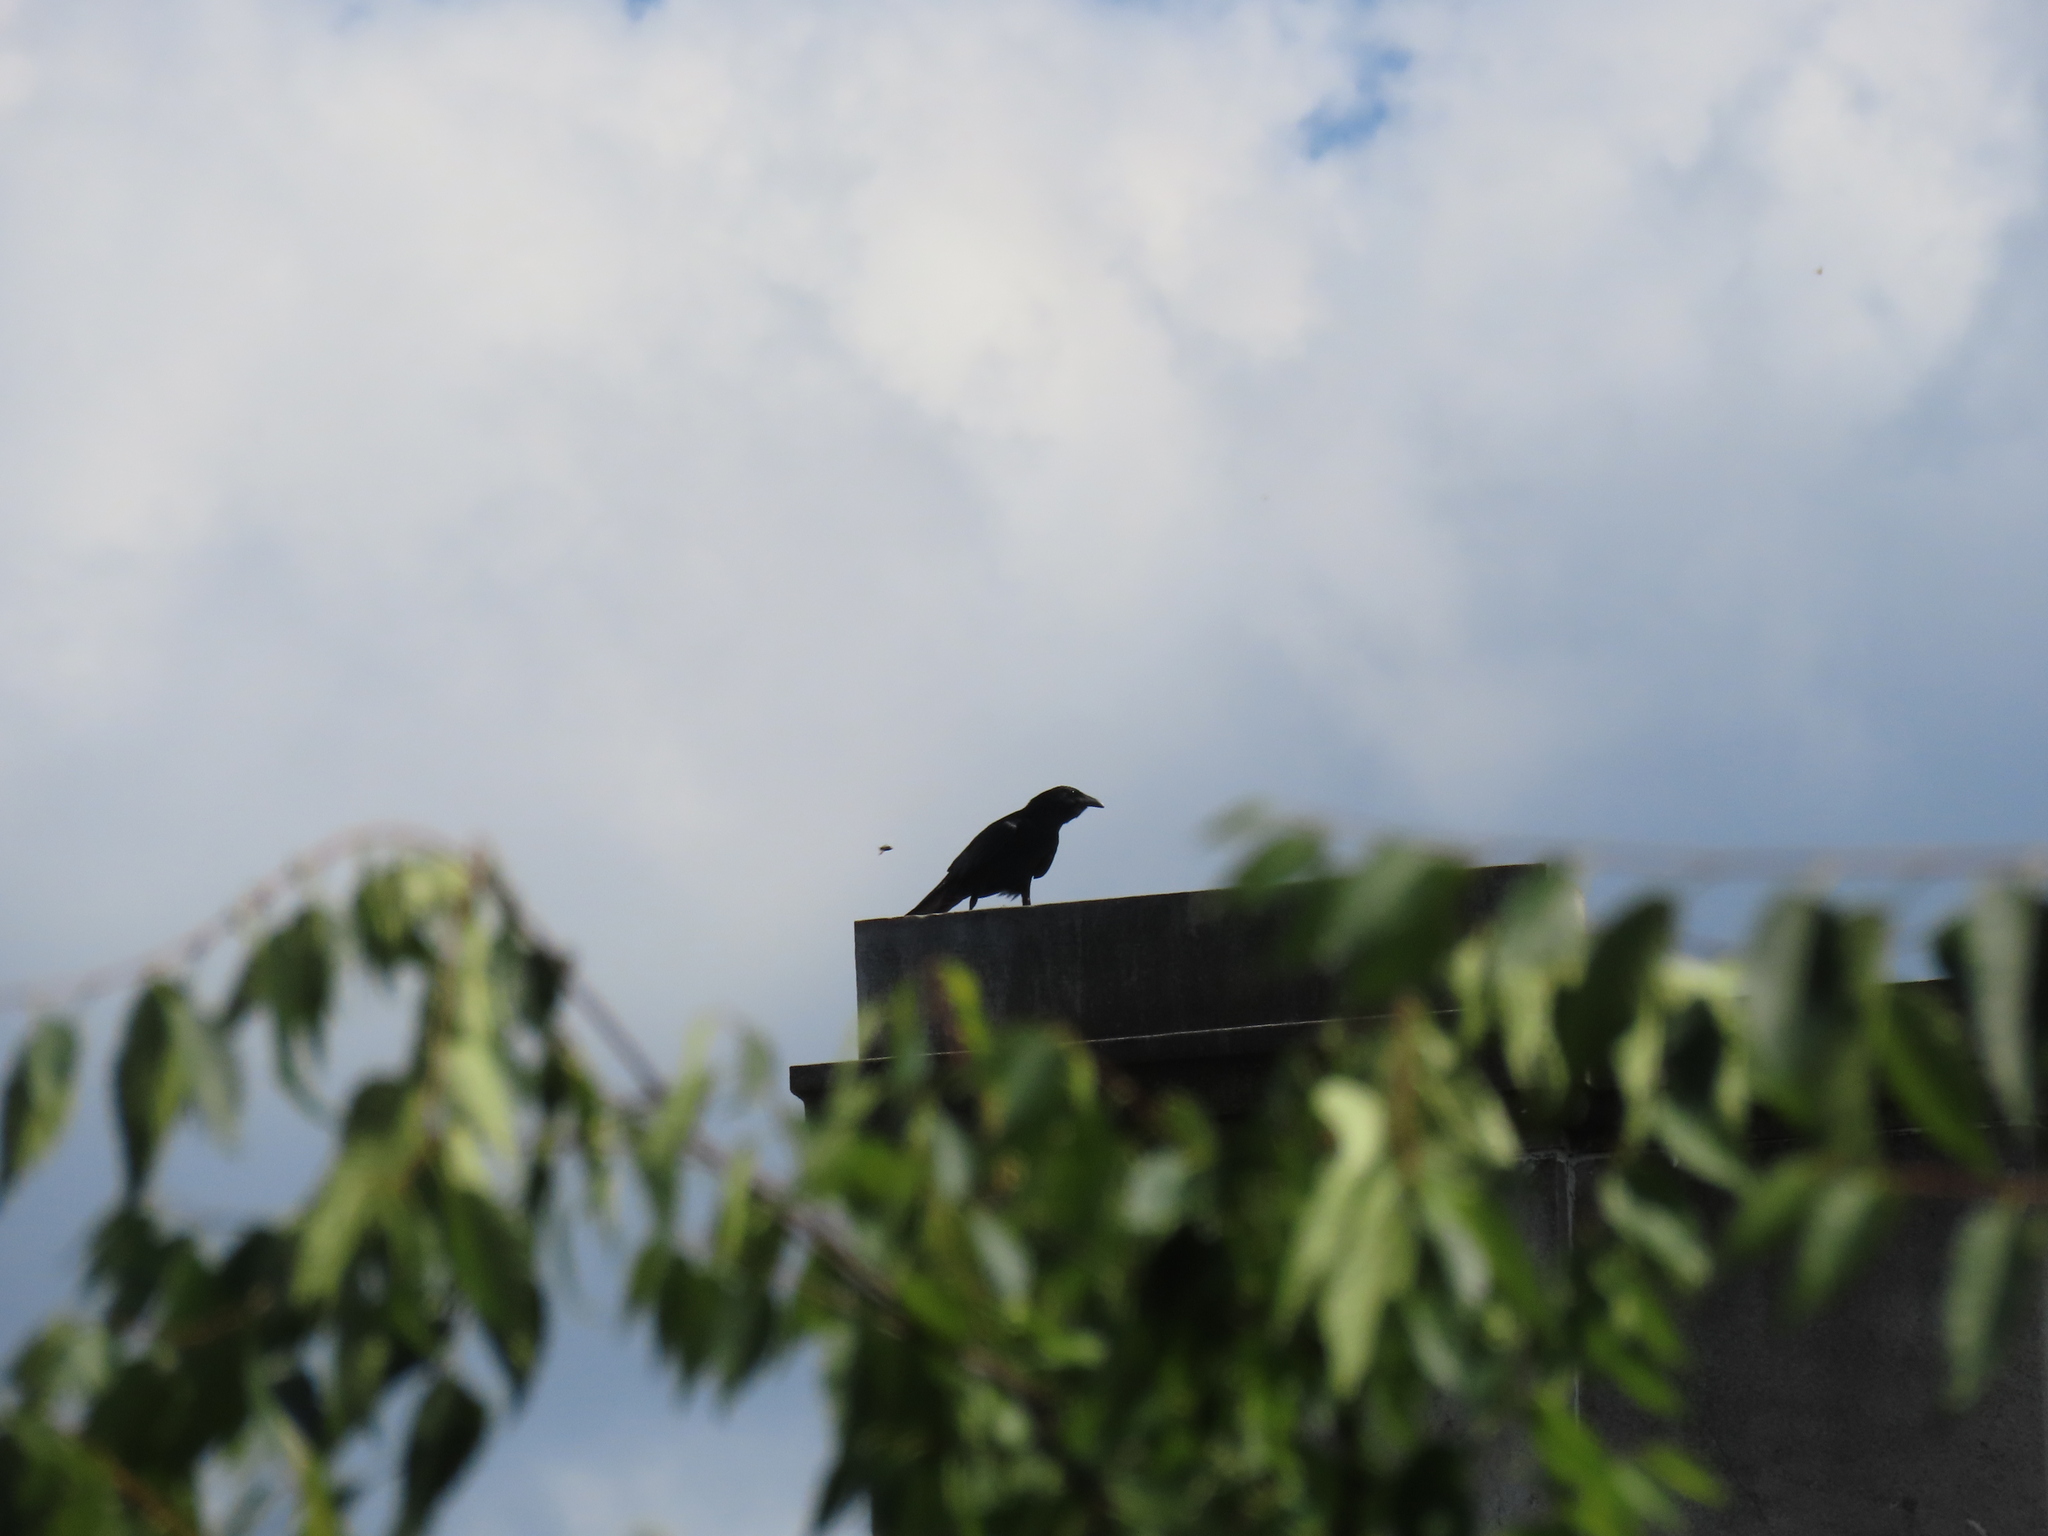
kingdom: Animalia
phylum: Chordata
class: Aves
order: Passeriformes
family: Corvidae
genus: Corvus
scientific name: Corvus corax
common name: Common raven
